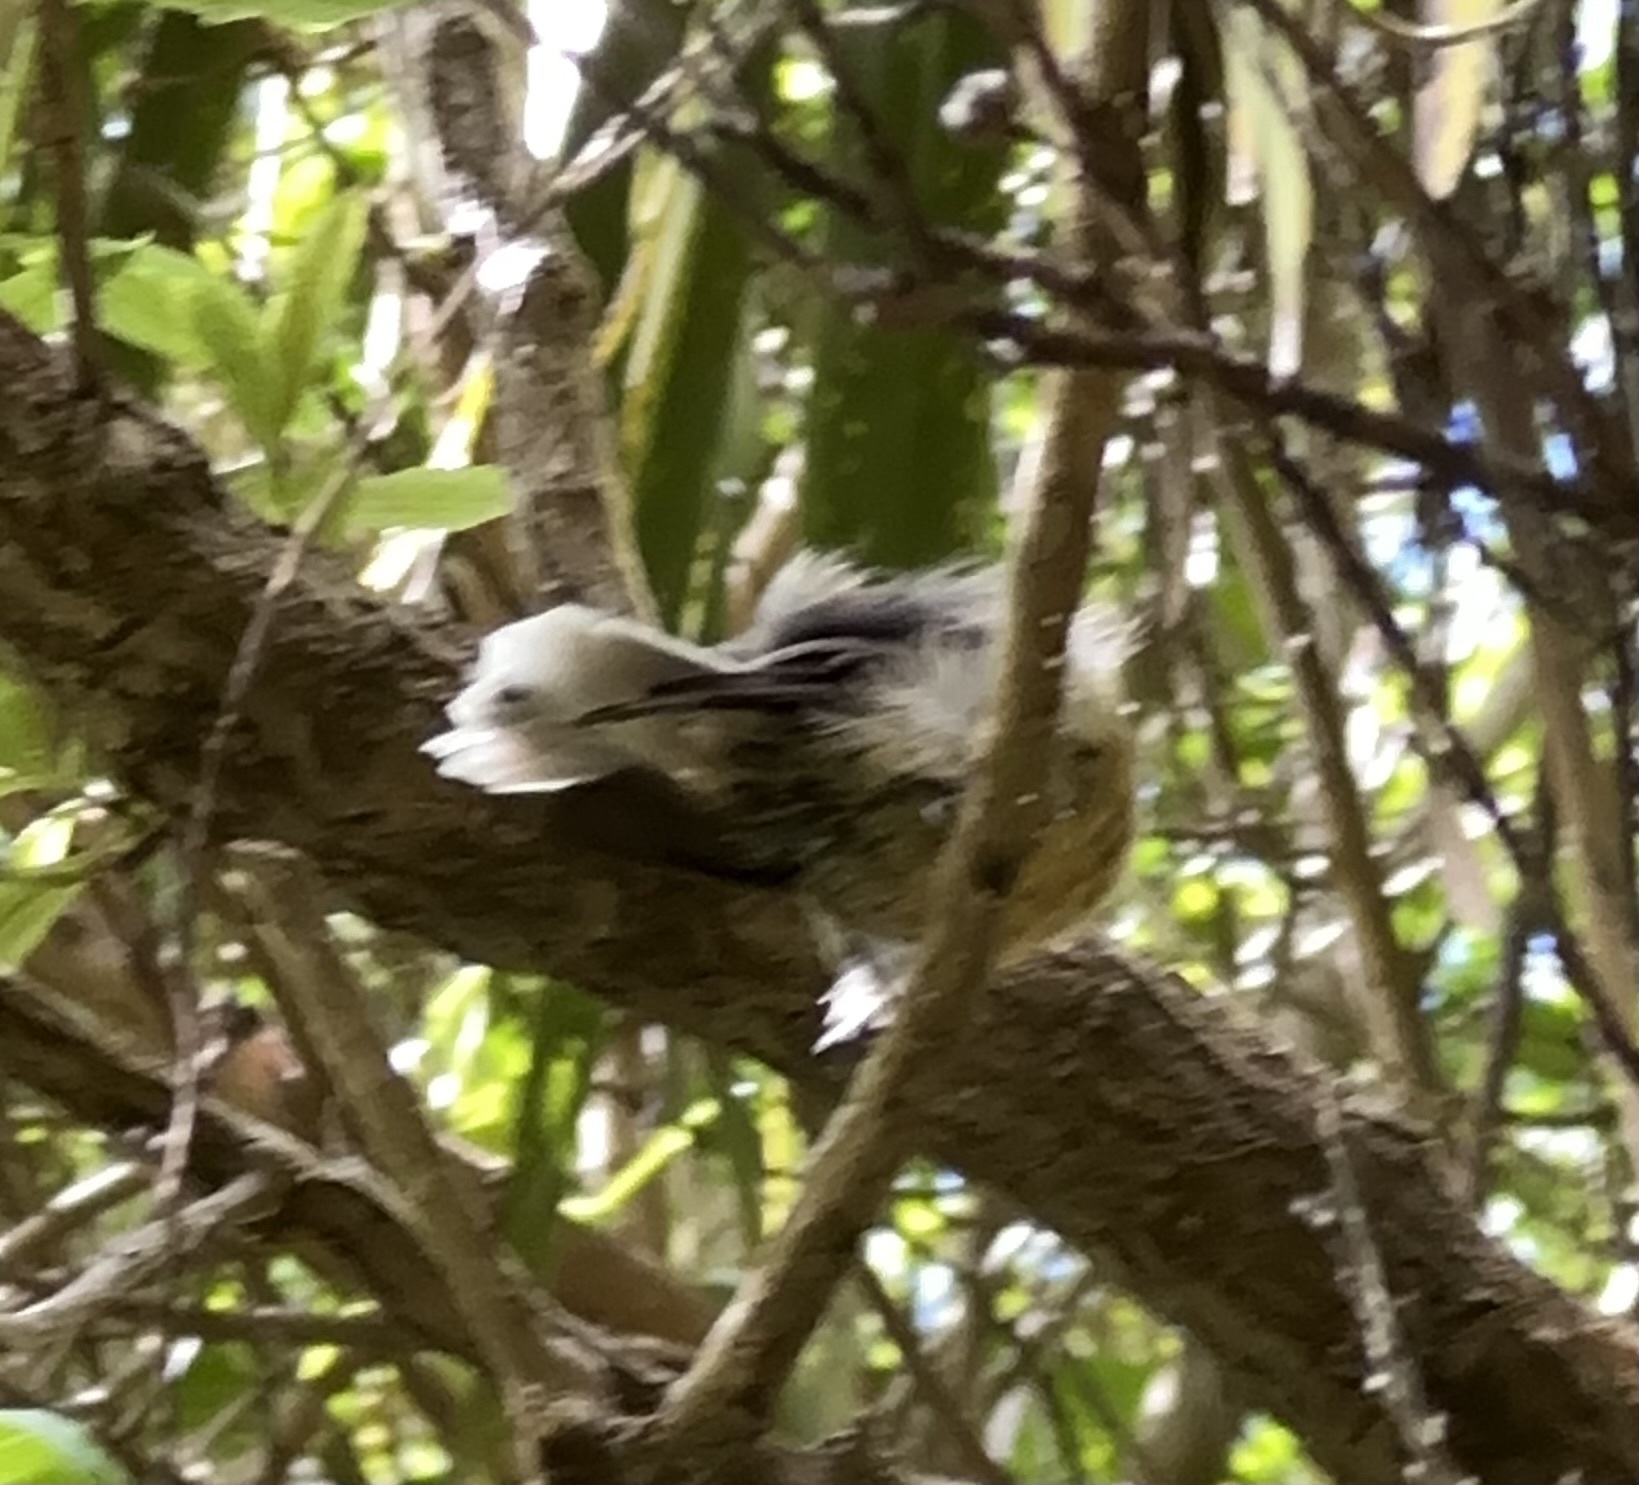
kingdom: Animalia
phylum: Chordata
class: Aves
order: Passeriformes
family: Rhipiduridae
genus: Rhipidura
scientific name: Rhipidura fuliginosa
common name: New zealand fantail
